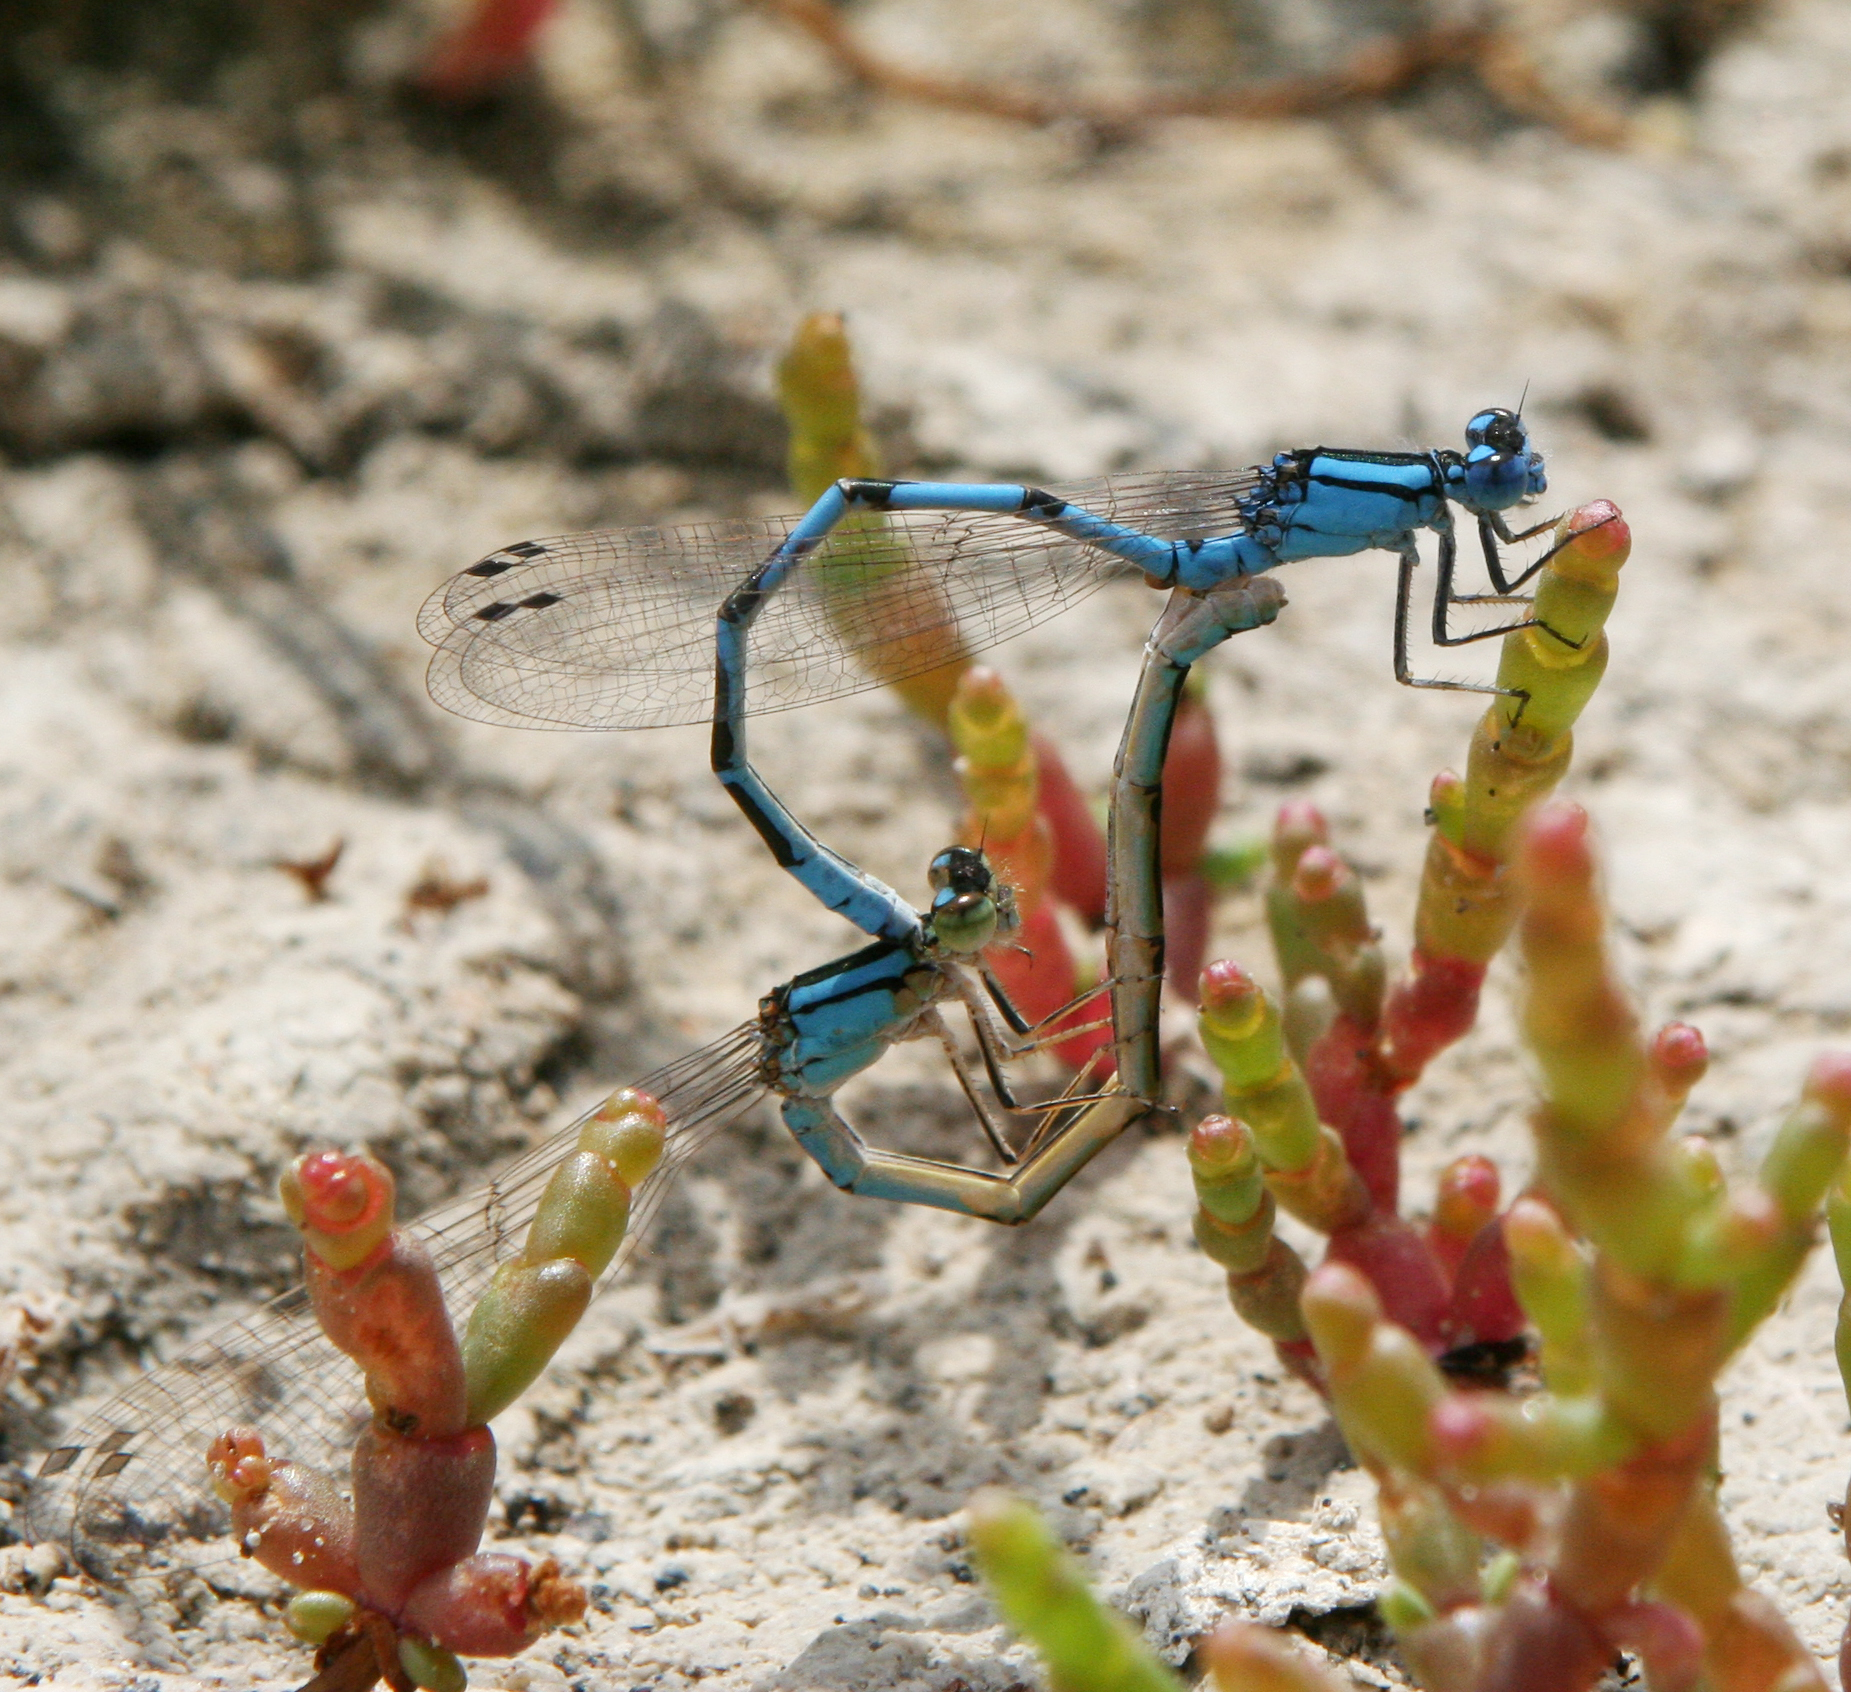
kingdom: Animalia
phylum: Arthropoda
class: Insecta
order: Odonata
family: Coenagrionidae
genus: Enallagma
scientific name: Enallagma cyathigerum
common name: Common blue damselfly
